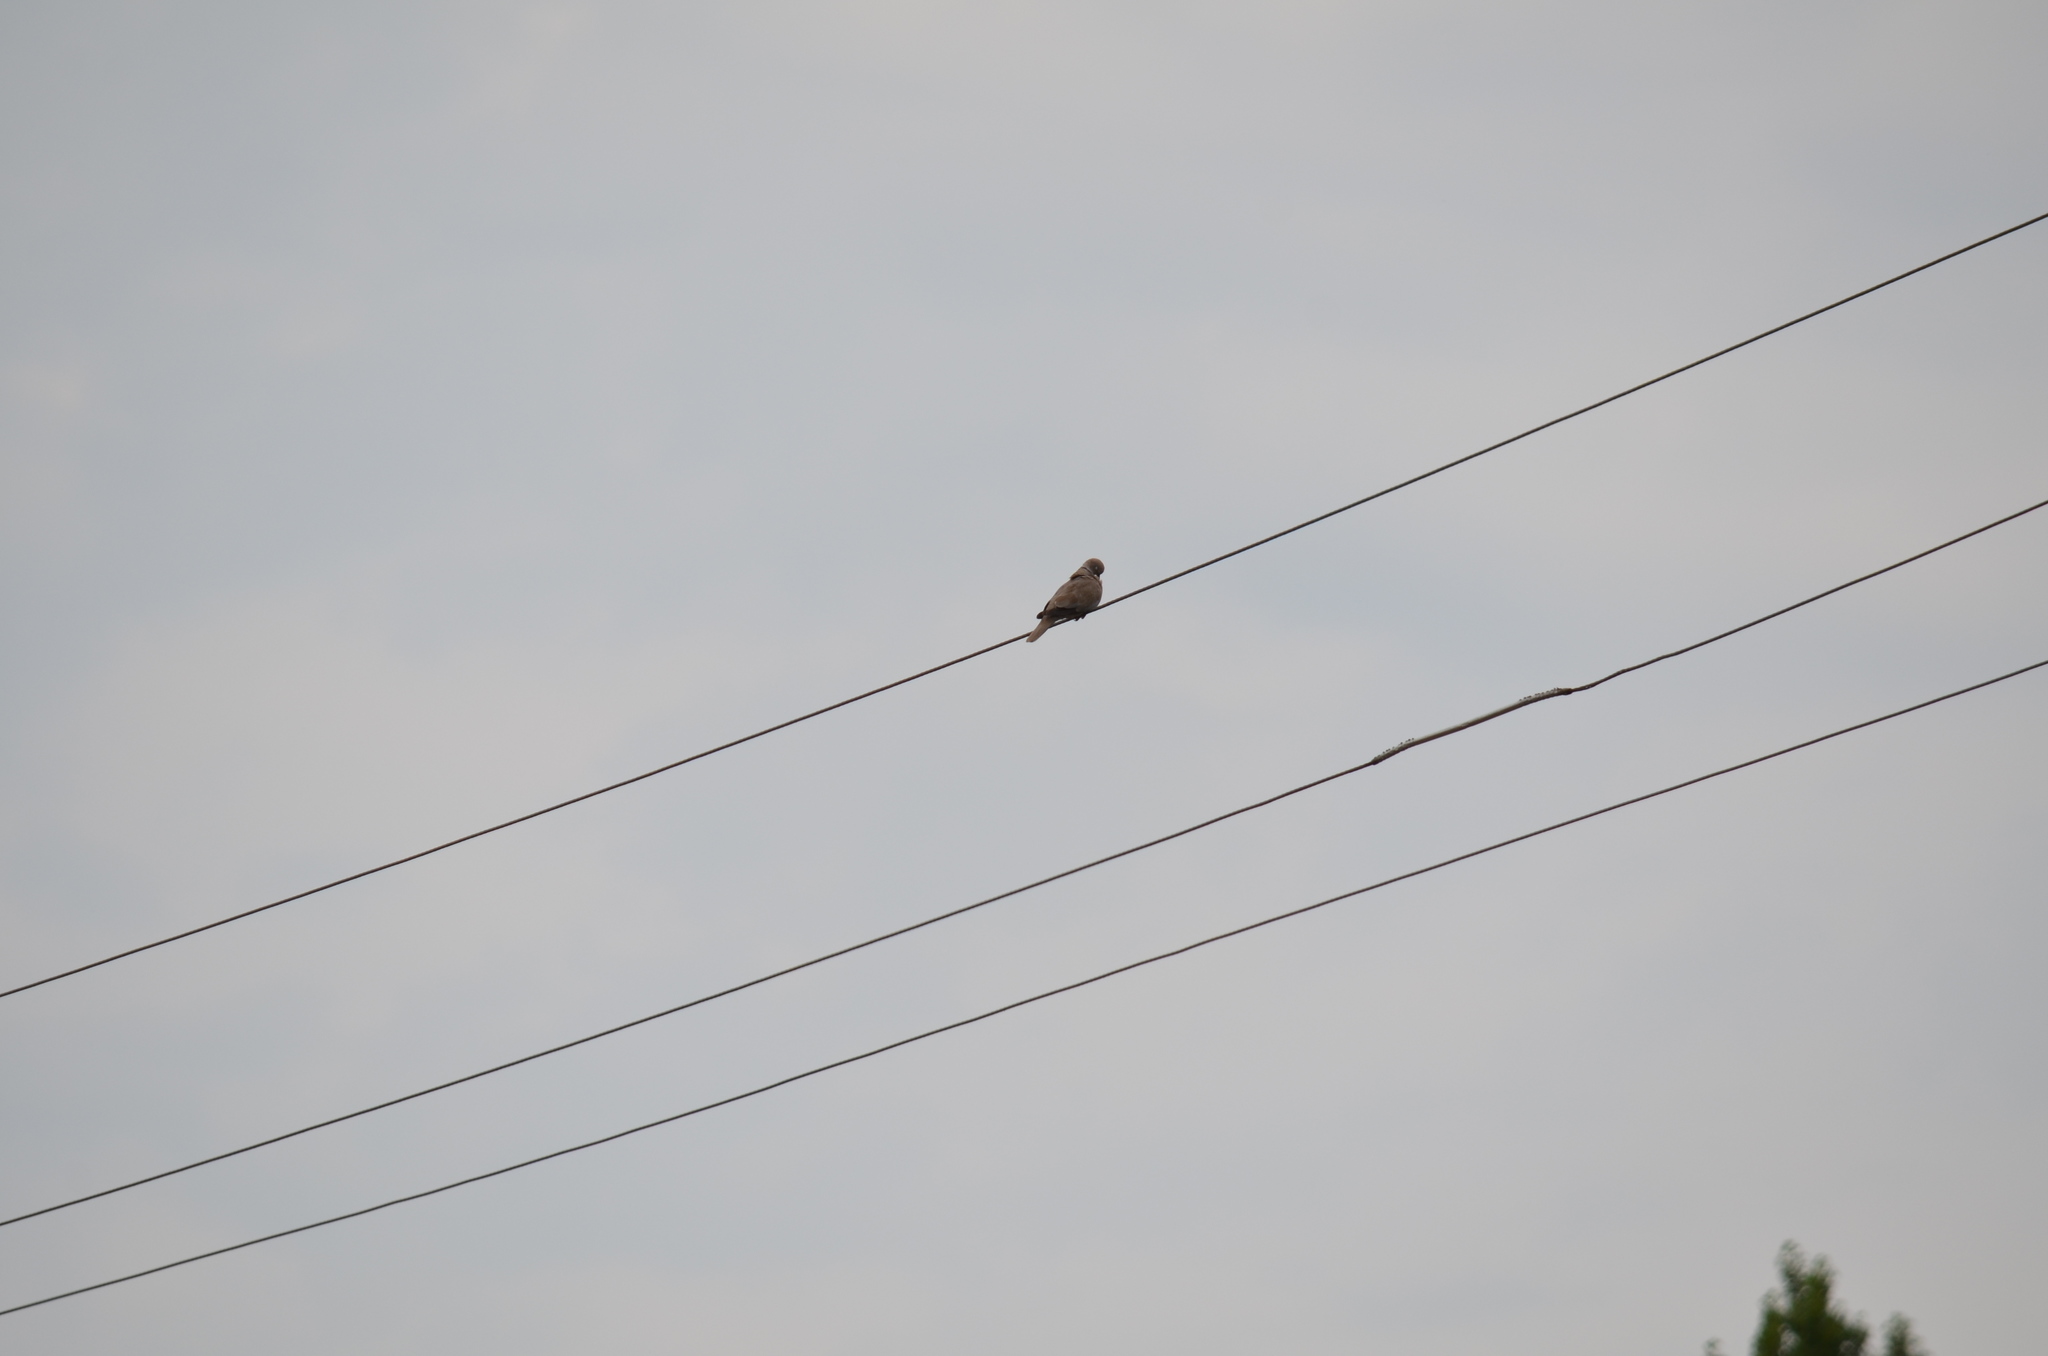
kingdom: Animalia
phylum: Chordata
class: Aves
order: Columbiformes
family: Columbidae
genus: Streptopelia
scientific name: Streptopelia decaocto
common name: Eurasian collared dove
